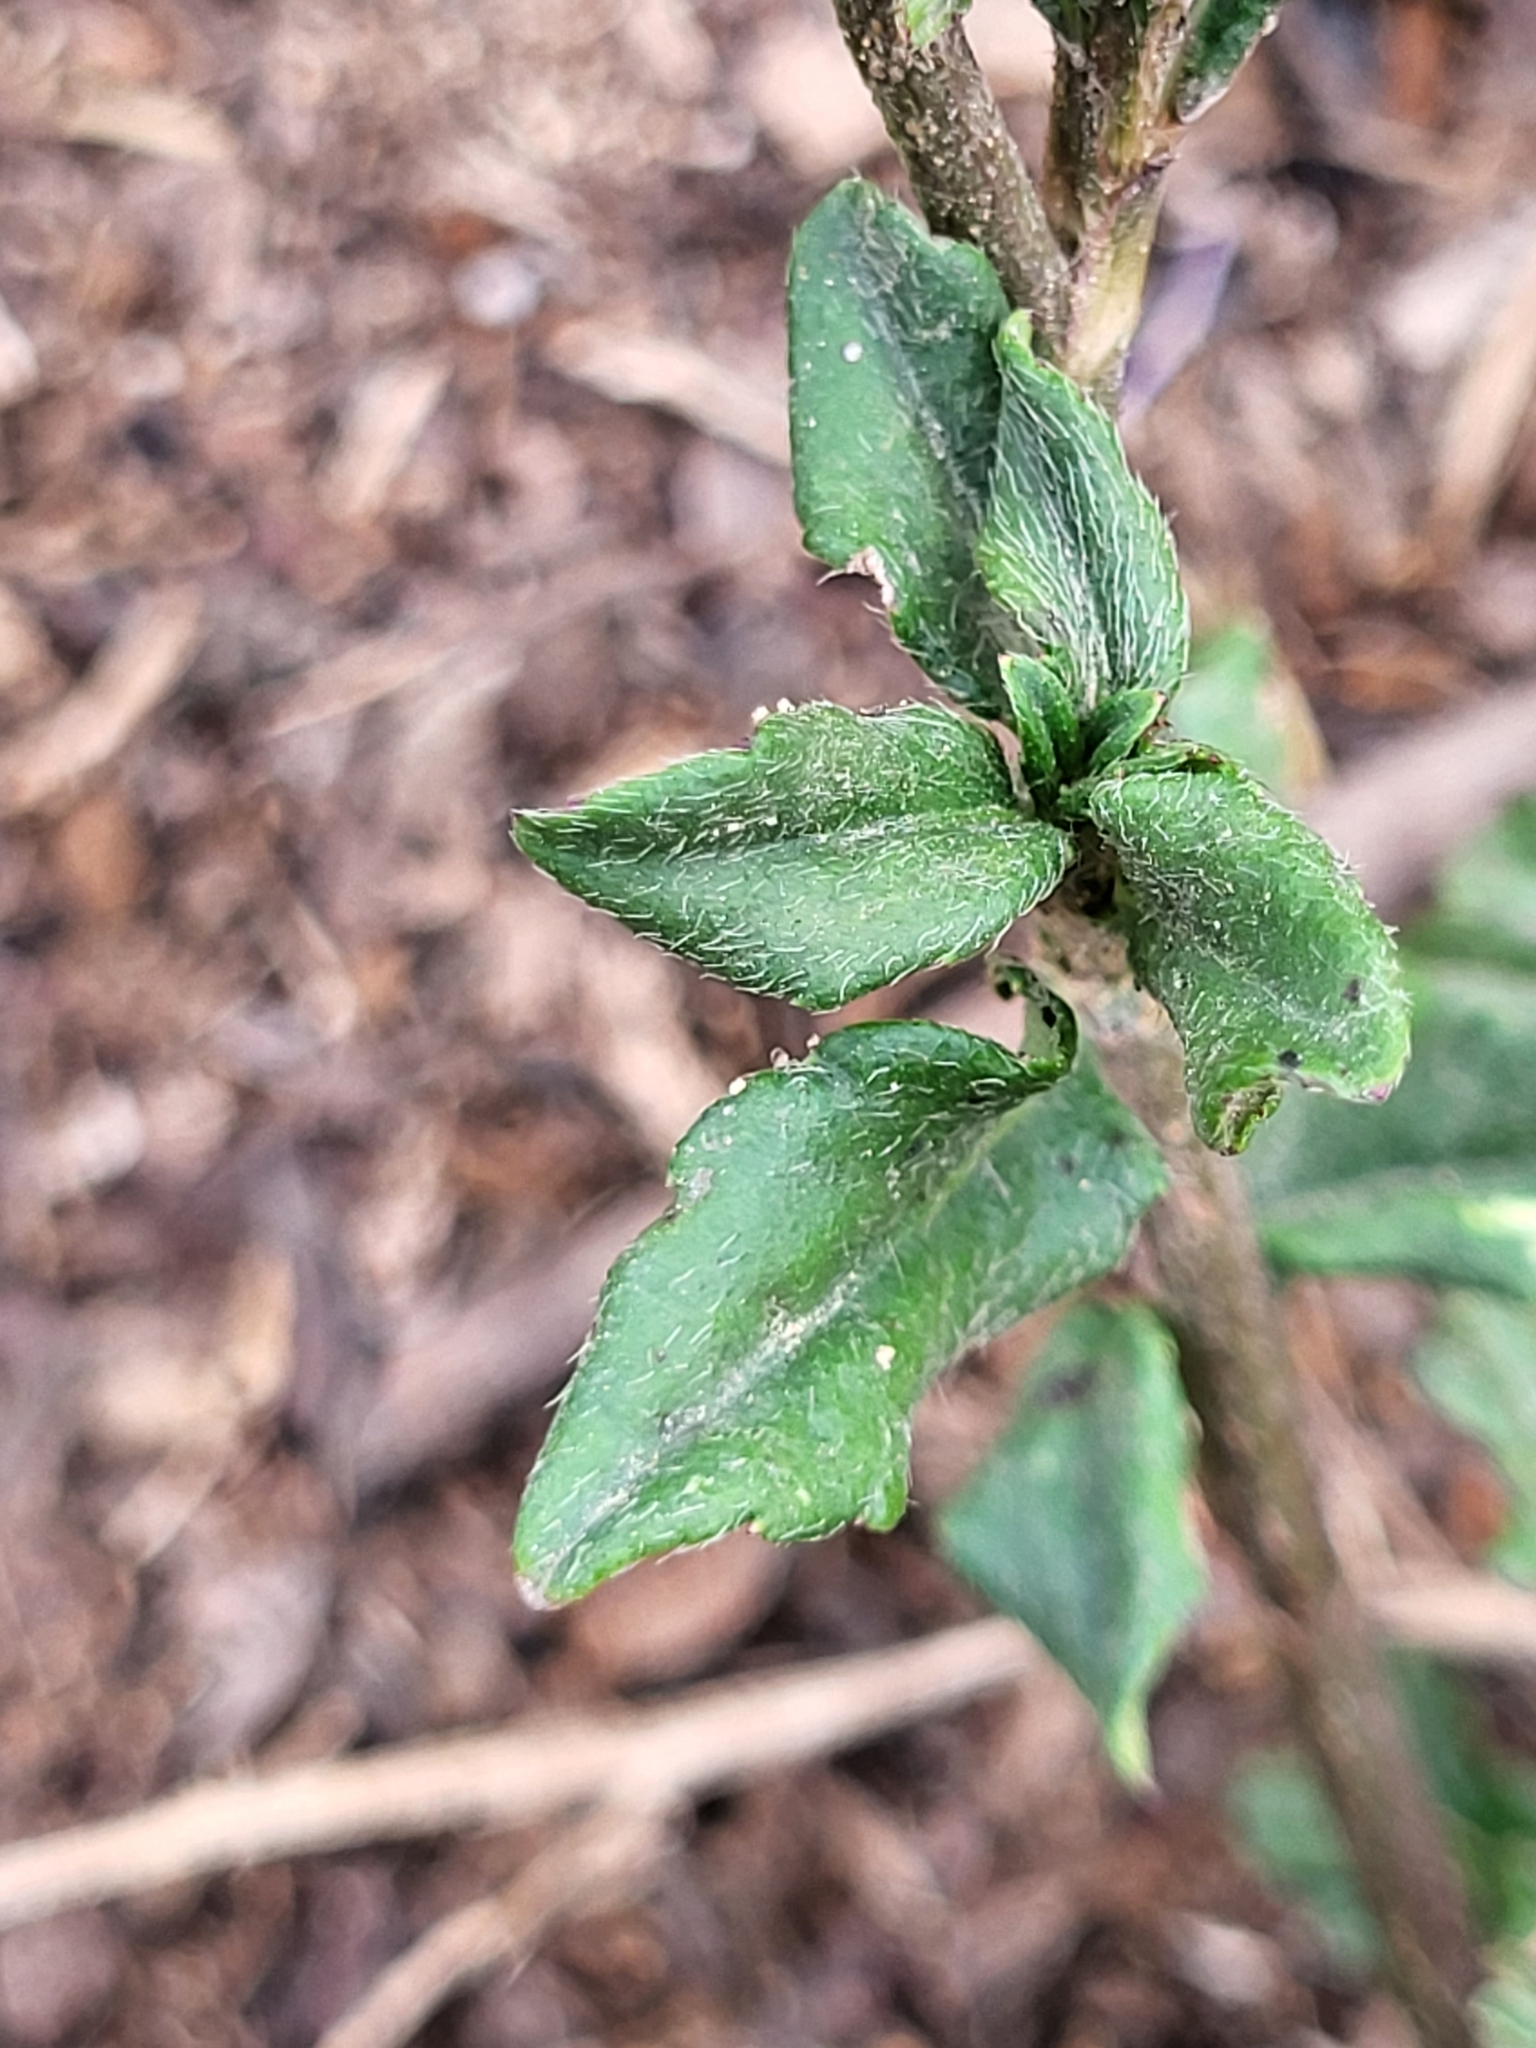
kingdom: Plantae
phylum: Tracheophyta
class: Magnoliopsida
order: Asterales
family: Asteraceae
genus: Pseudelephantopus
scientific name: Pseudelephantopus spicatus
